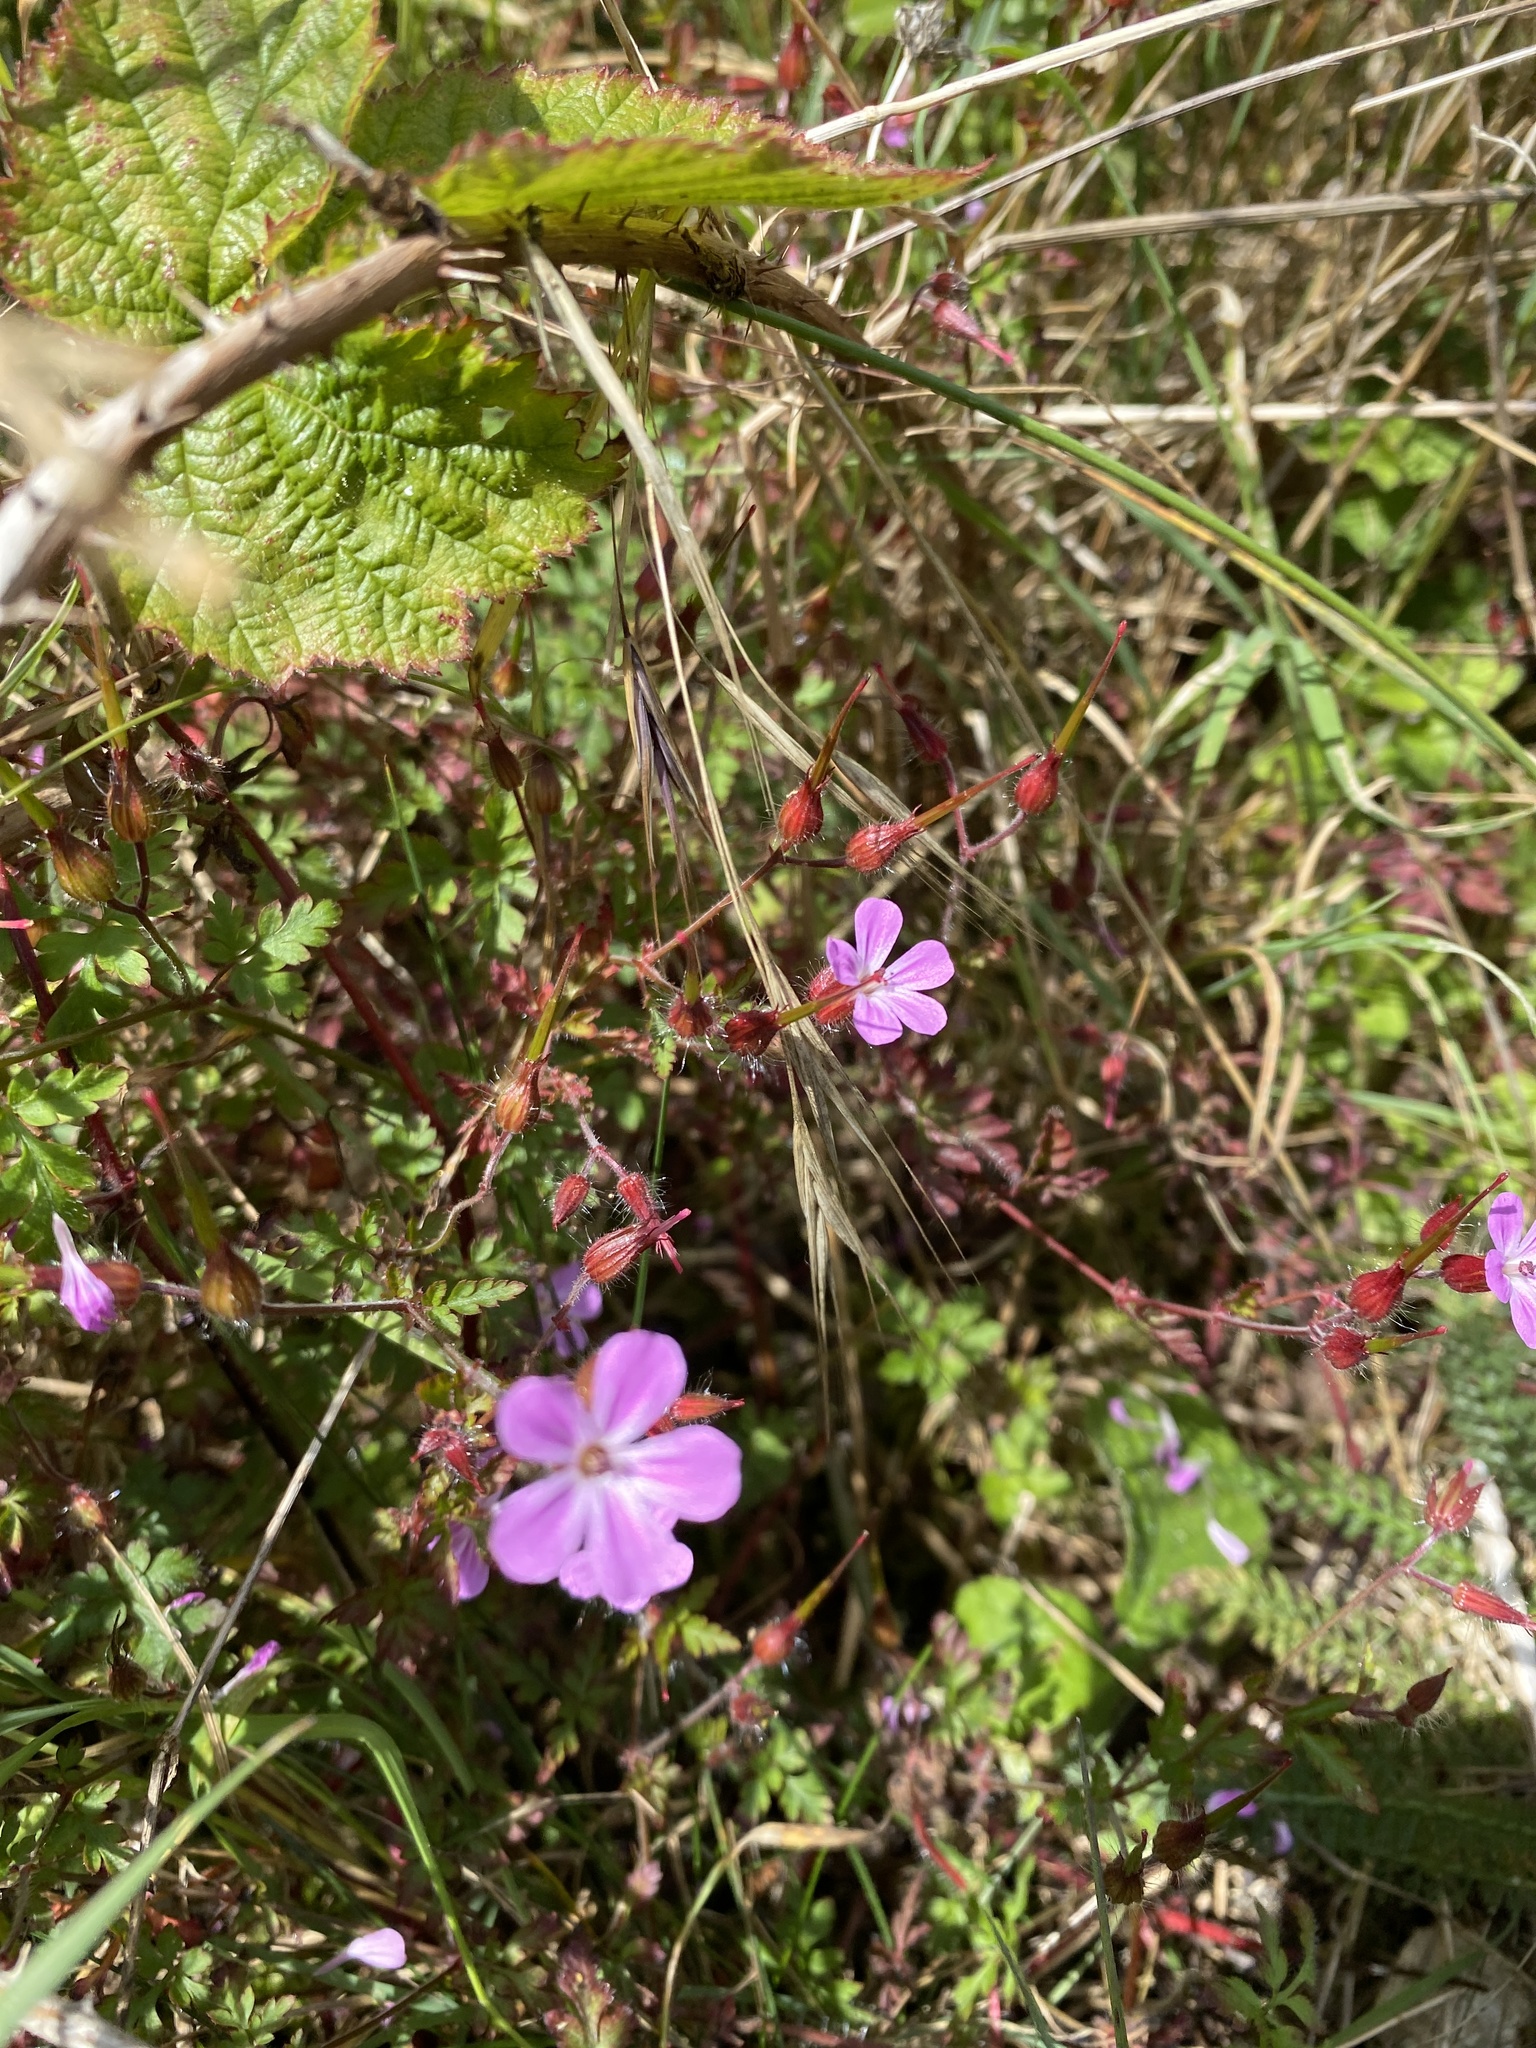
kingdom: Plantae
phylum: Tracheophyta
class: Magnoliopsida
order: Geraniales
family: Geraniaceae
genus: Geranium
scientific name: Geranium robertianum
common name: Herb-robert
